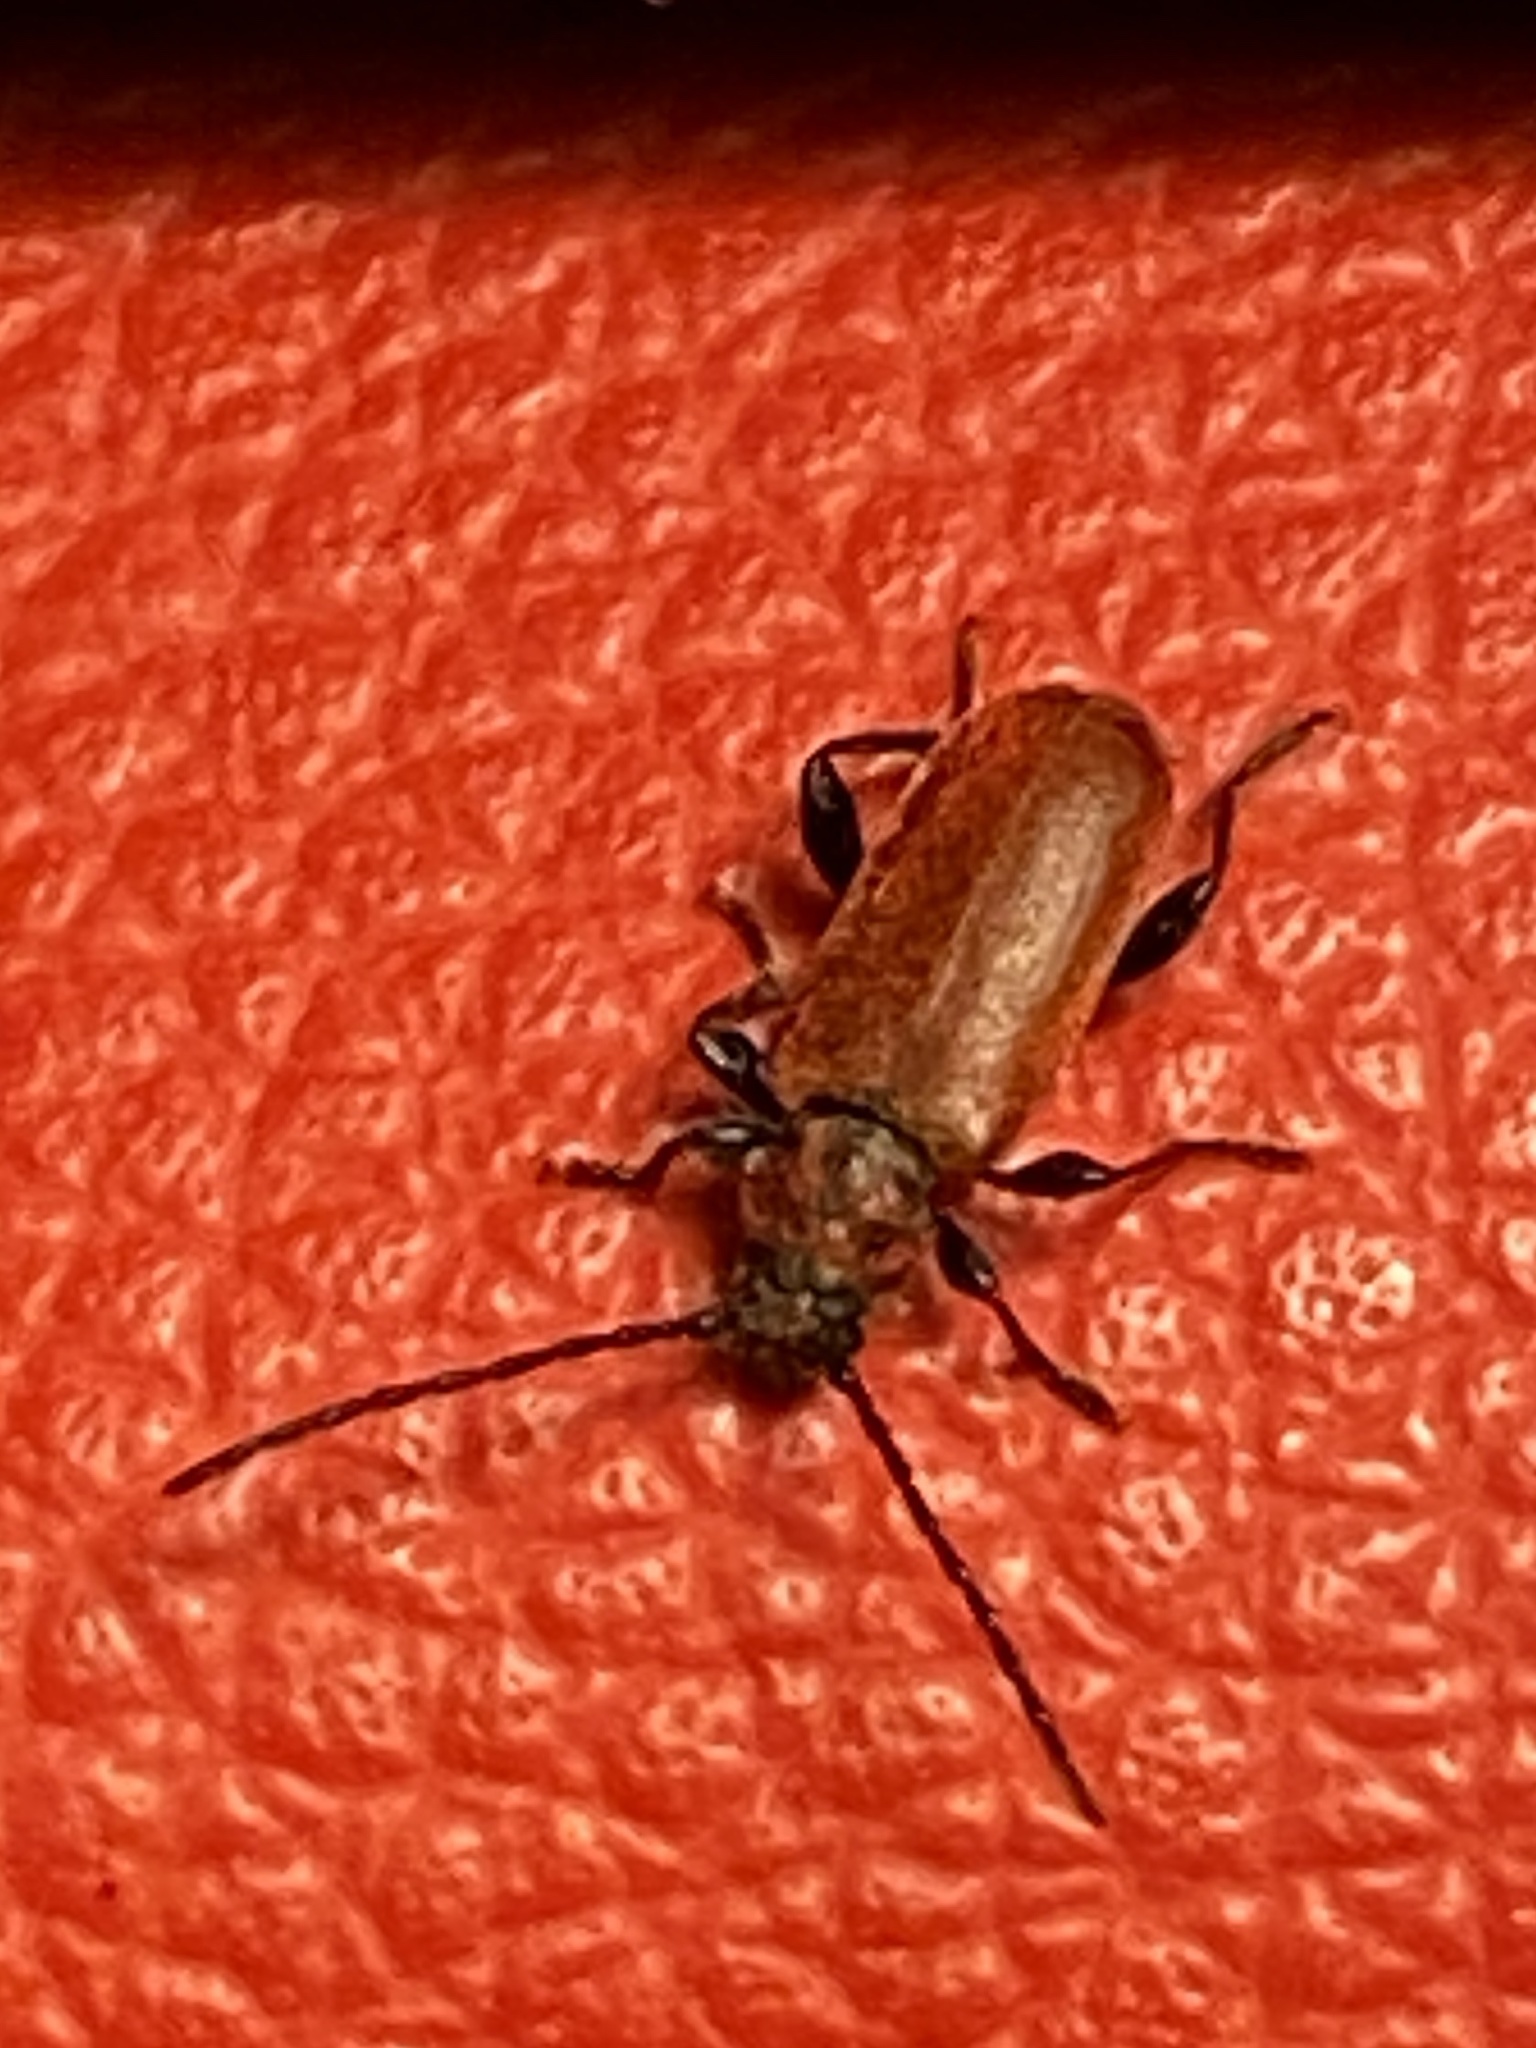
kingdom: Animalia
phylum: Arthropoda
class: Insecta
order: Coleoptera
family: Cerambycidae
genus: Pyrrhidium
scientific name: Pyrrhidium sanguineum
